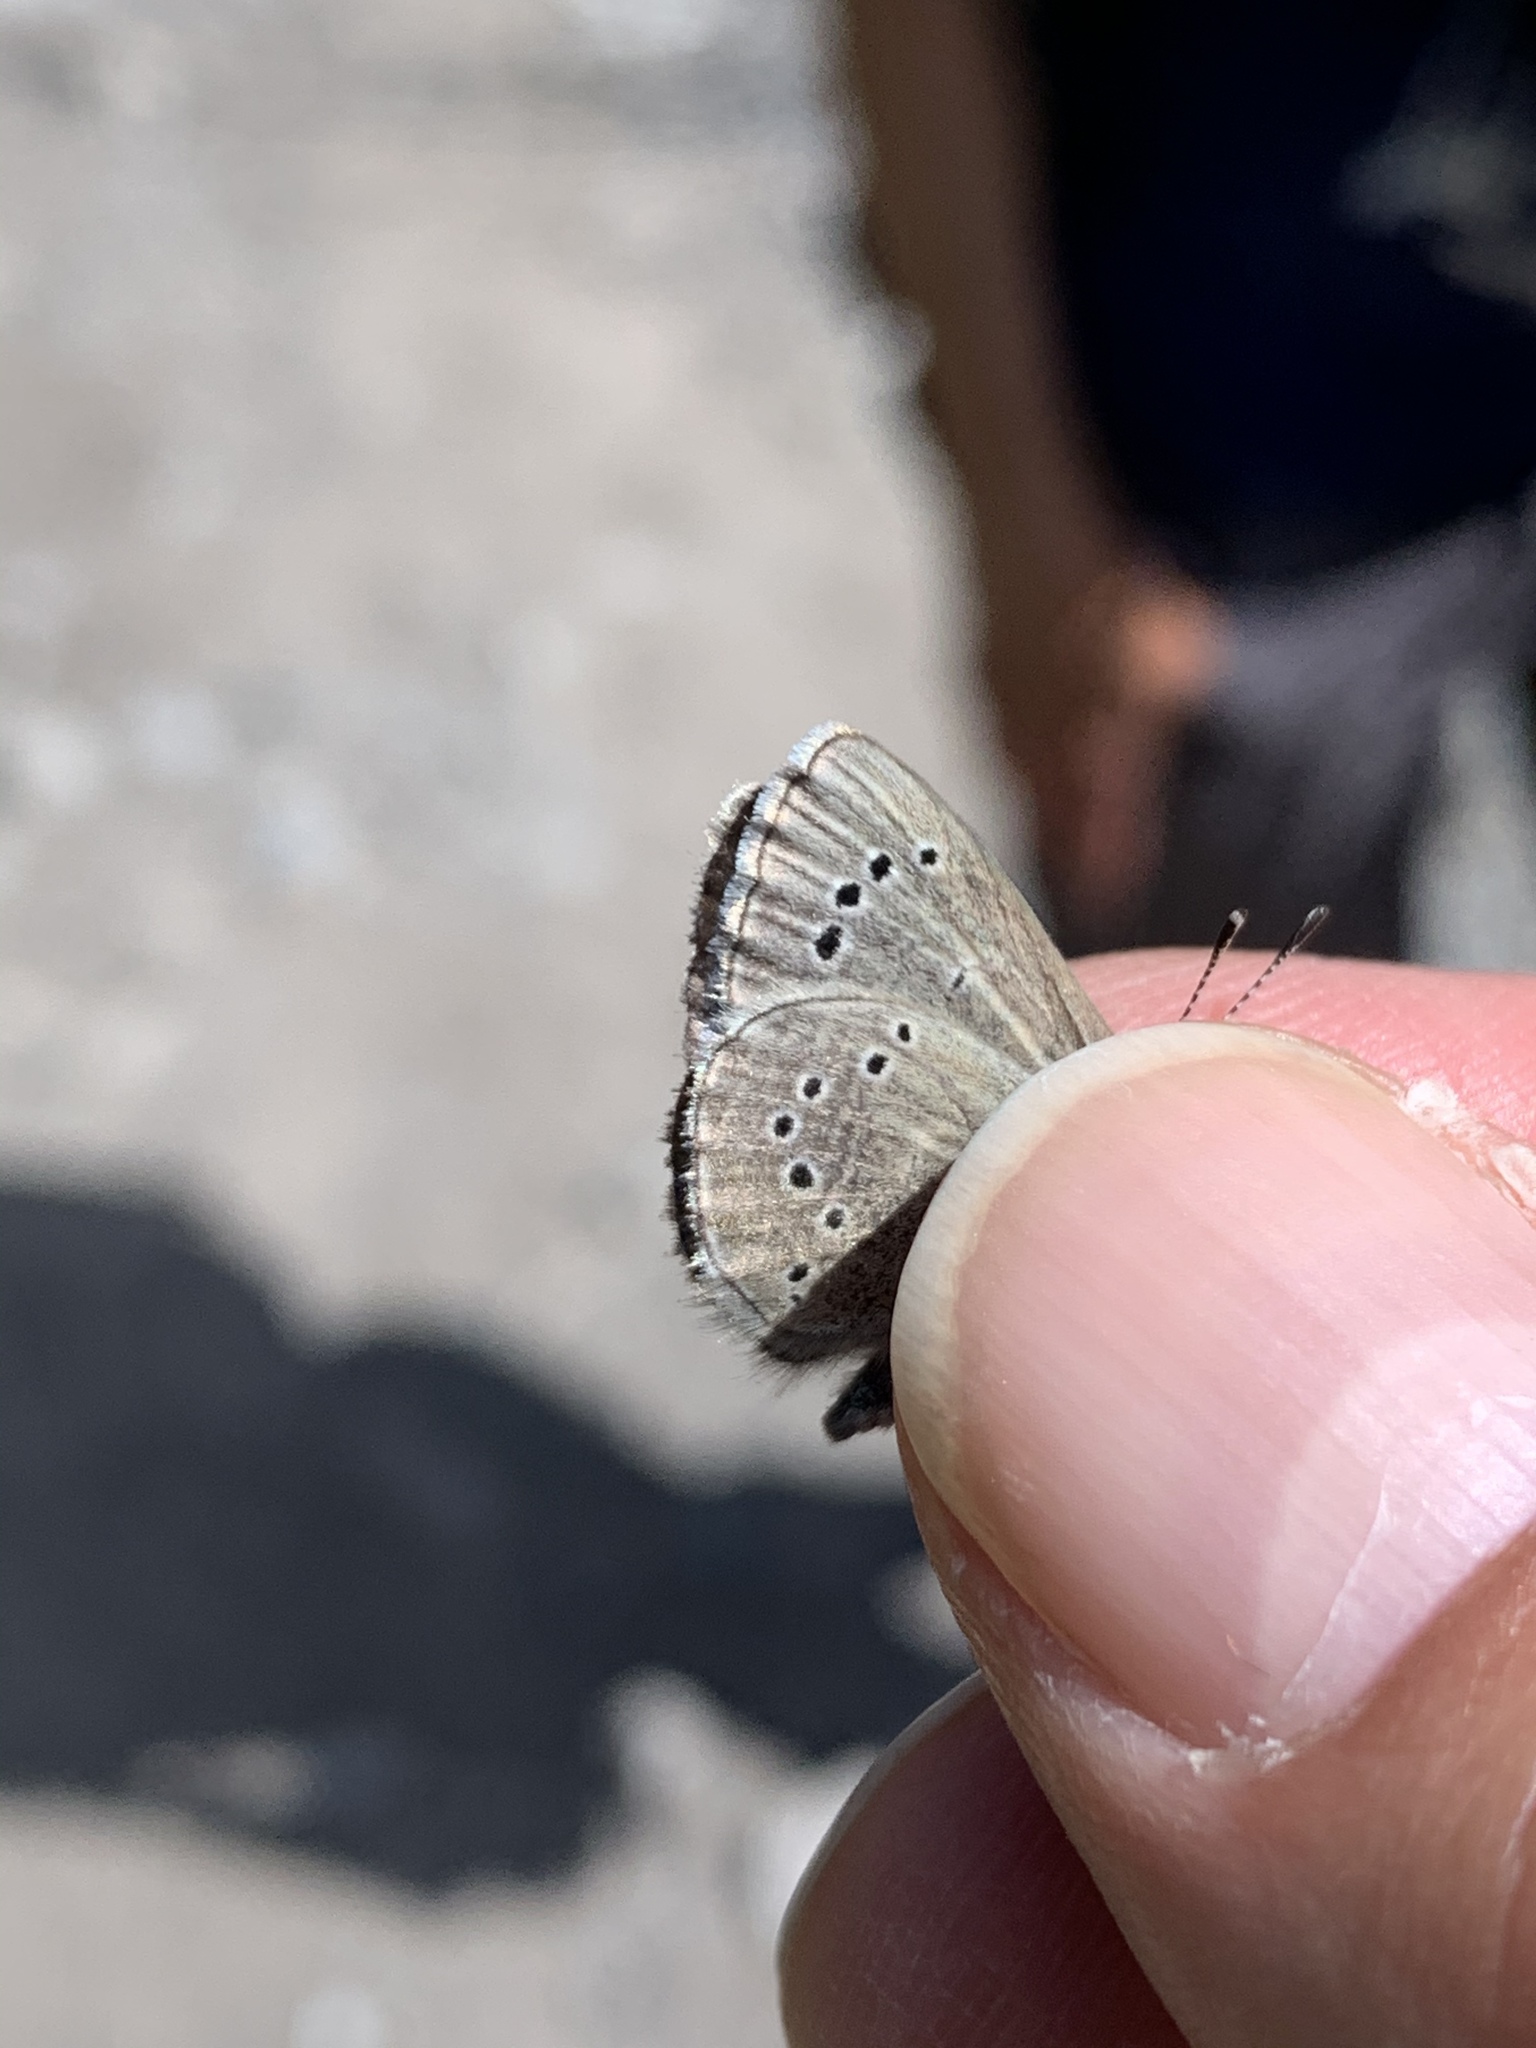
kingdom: Animalia
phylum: Arthropoda
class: Insecta
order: Lepidoptera
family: Lycaenidae
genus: Glaucopsyche
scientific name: Glaucopsyche lygdamus
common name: Silvery blue
